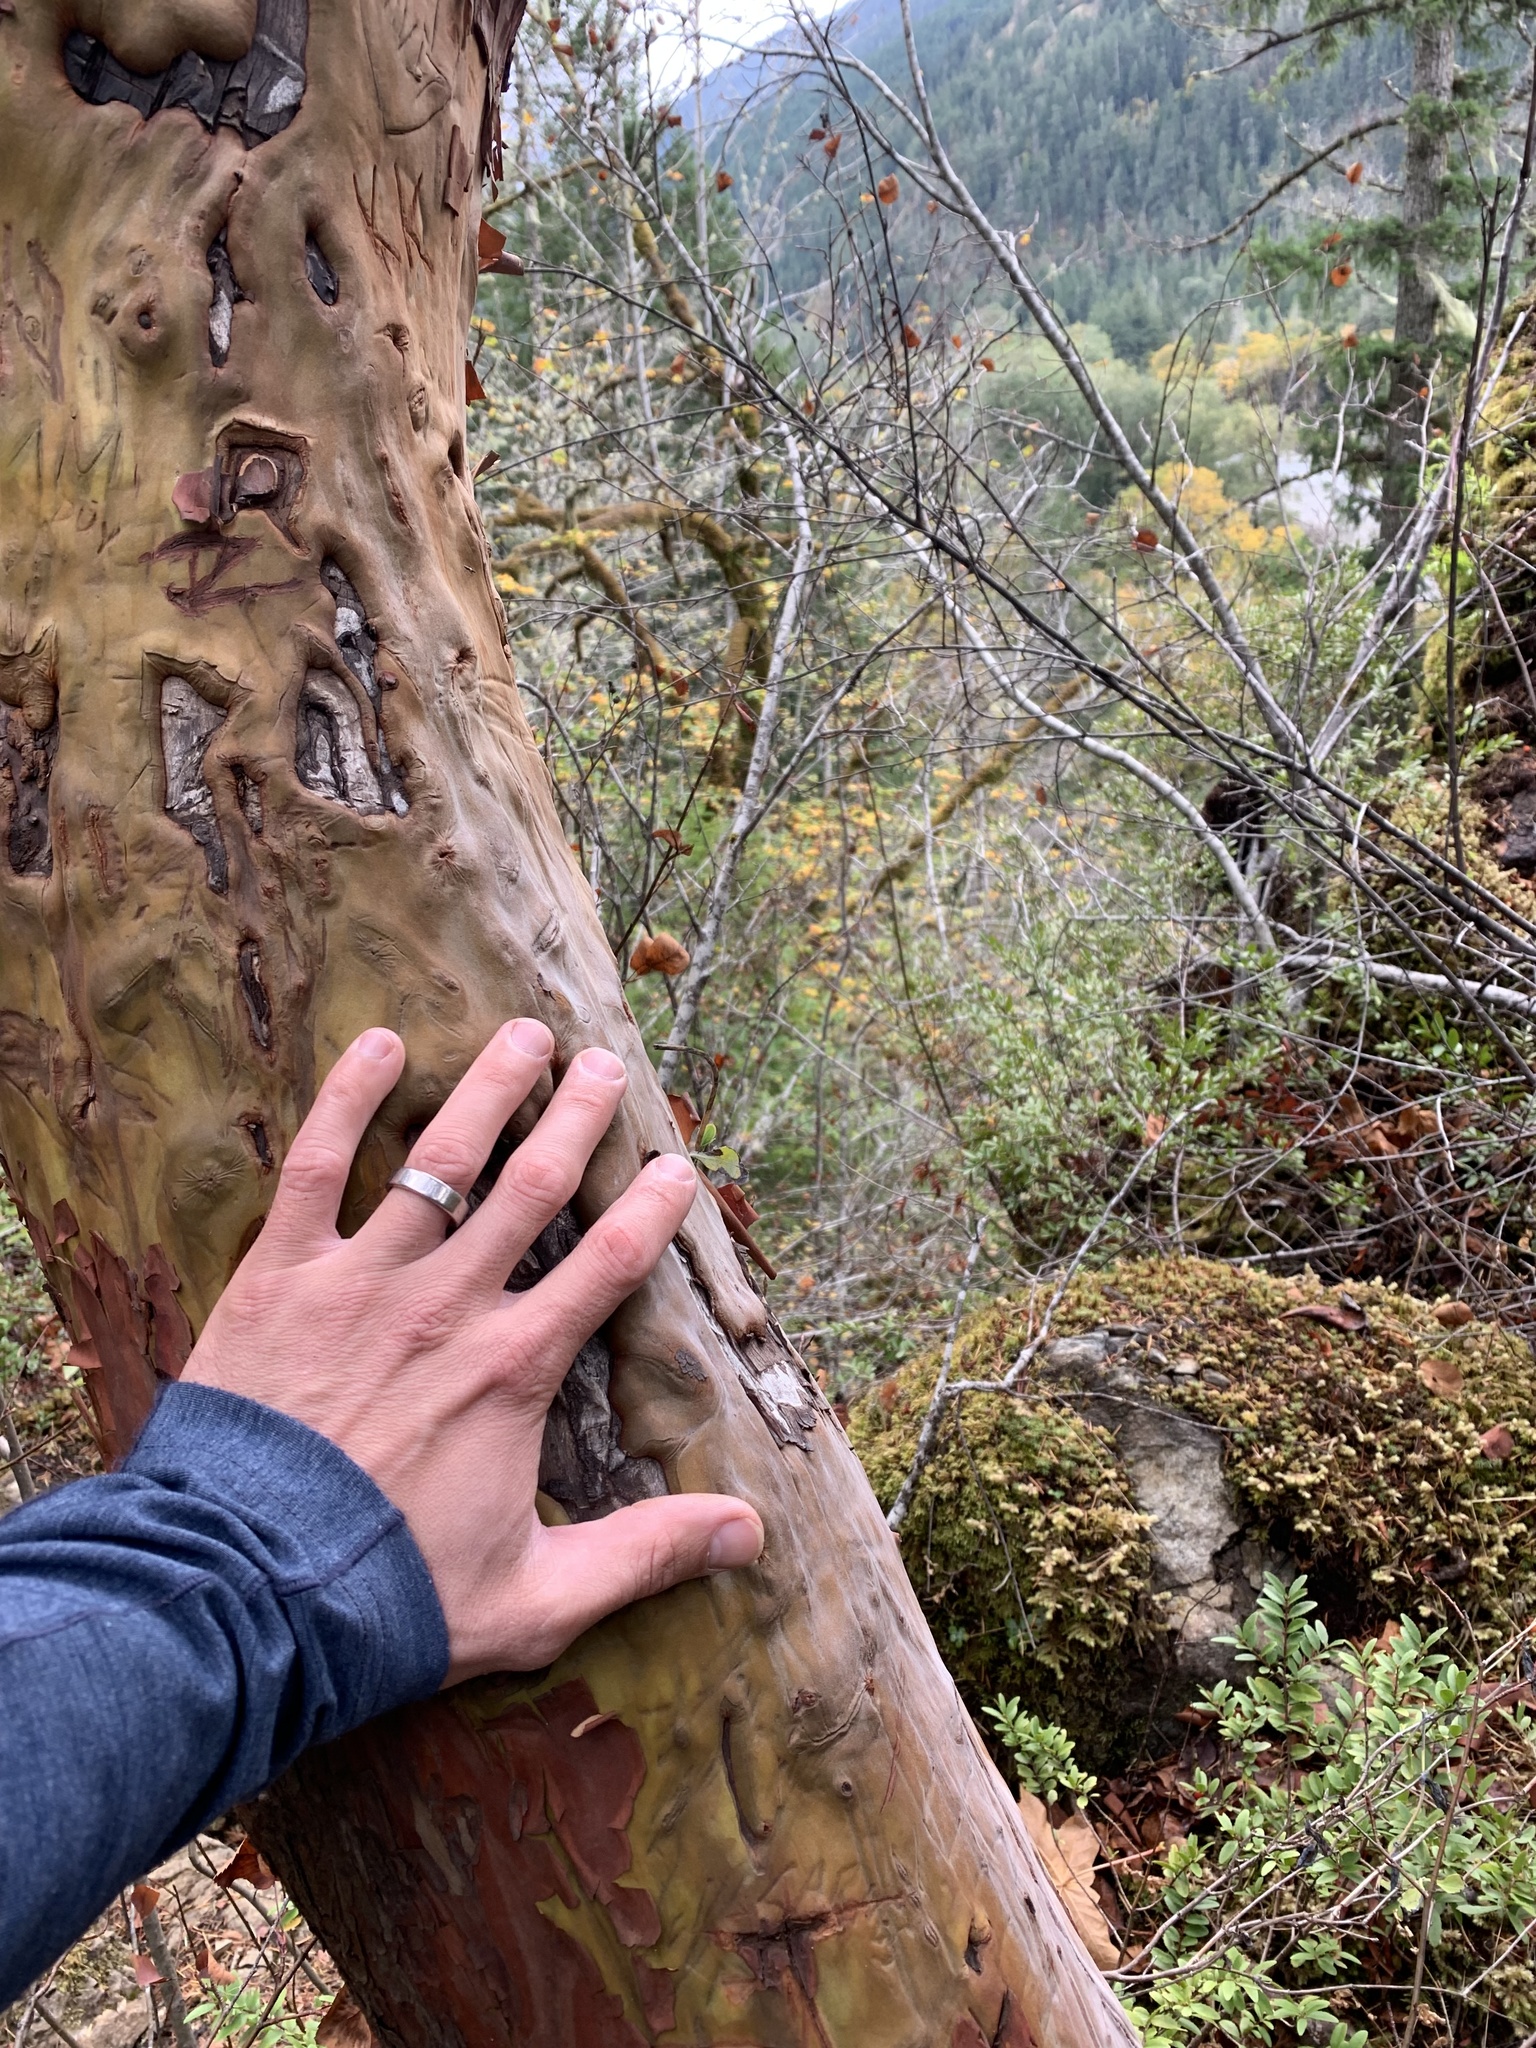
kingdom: Plantae
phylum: Tracheophyta
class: Magnoliopsida
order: Ericales
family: Ericaceae
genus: Arbutus
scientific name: Arbutus menziesii
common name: Pacific madrone
